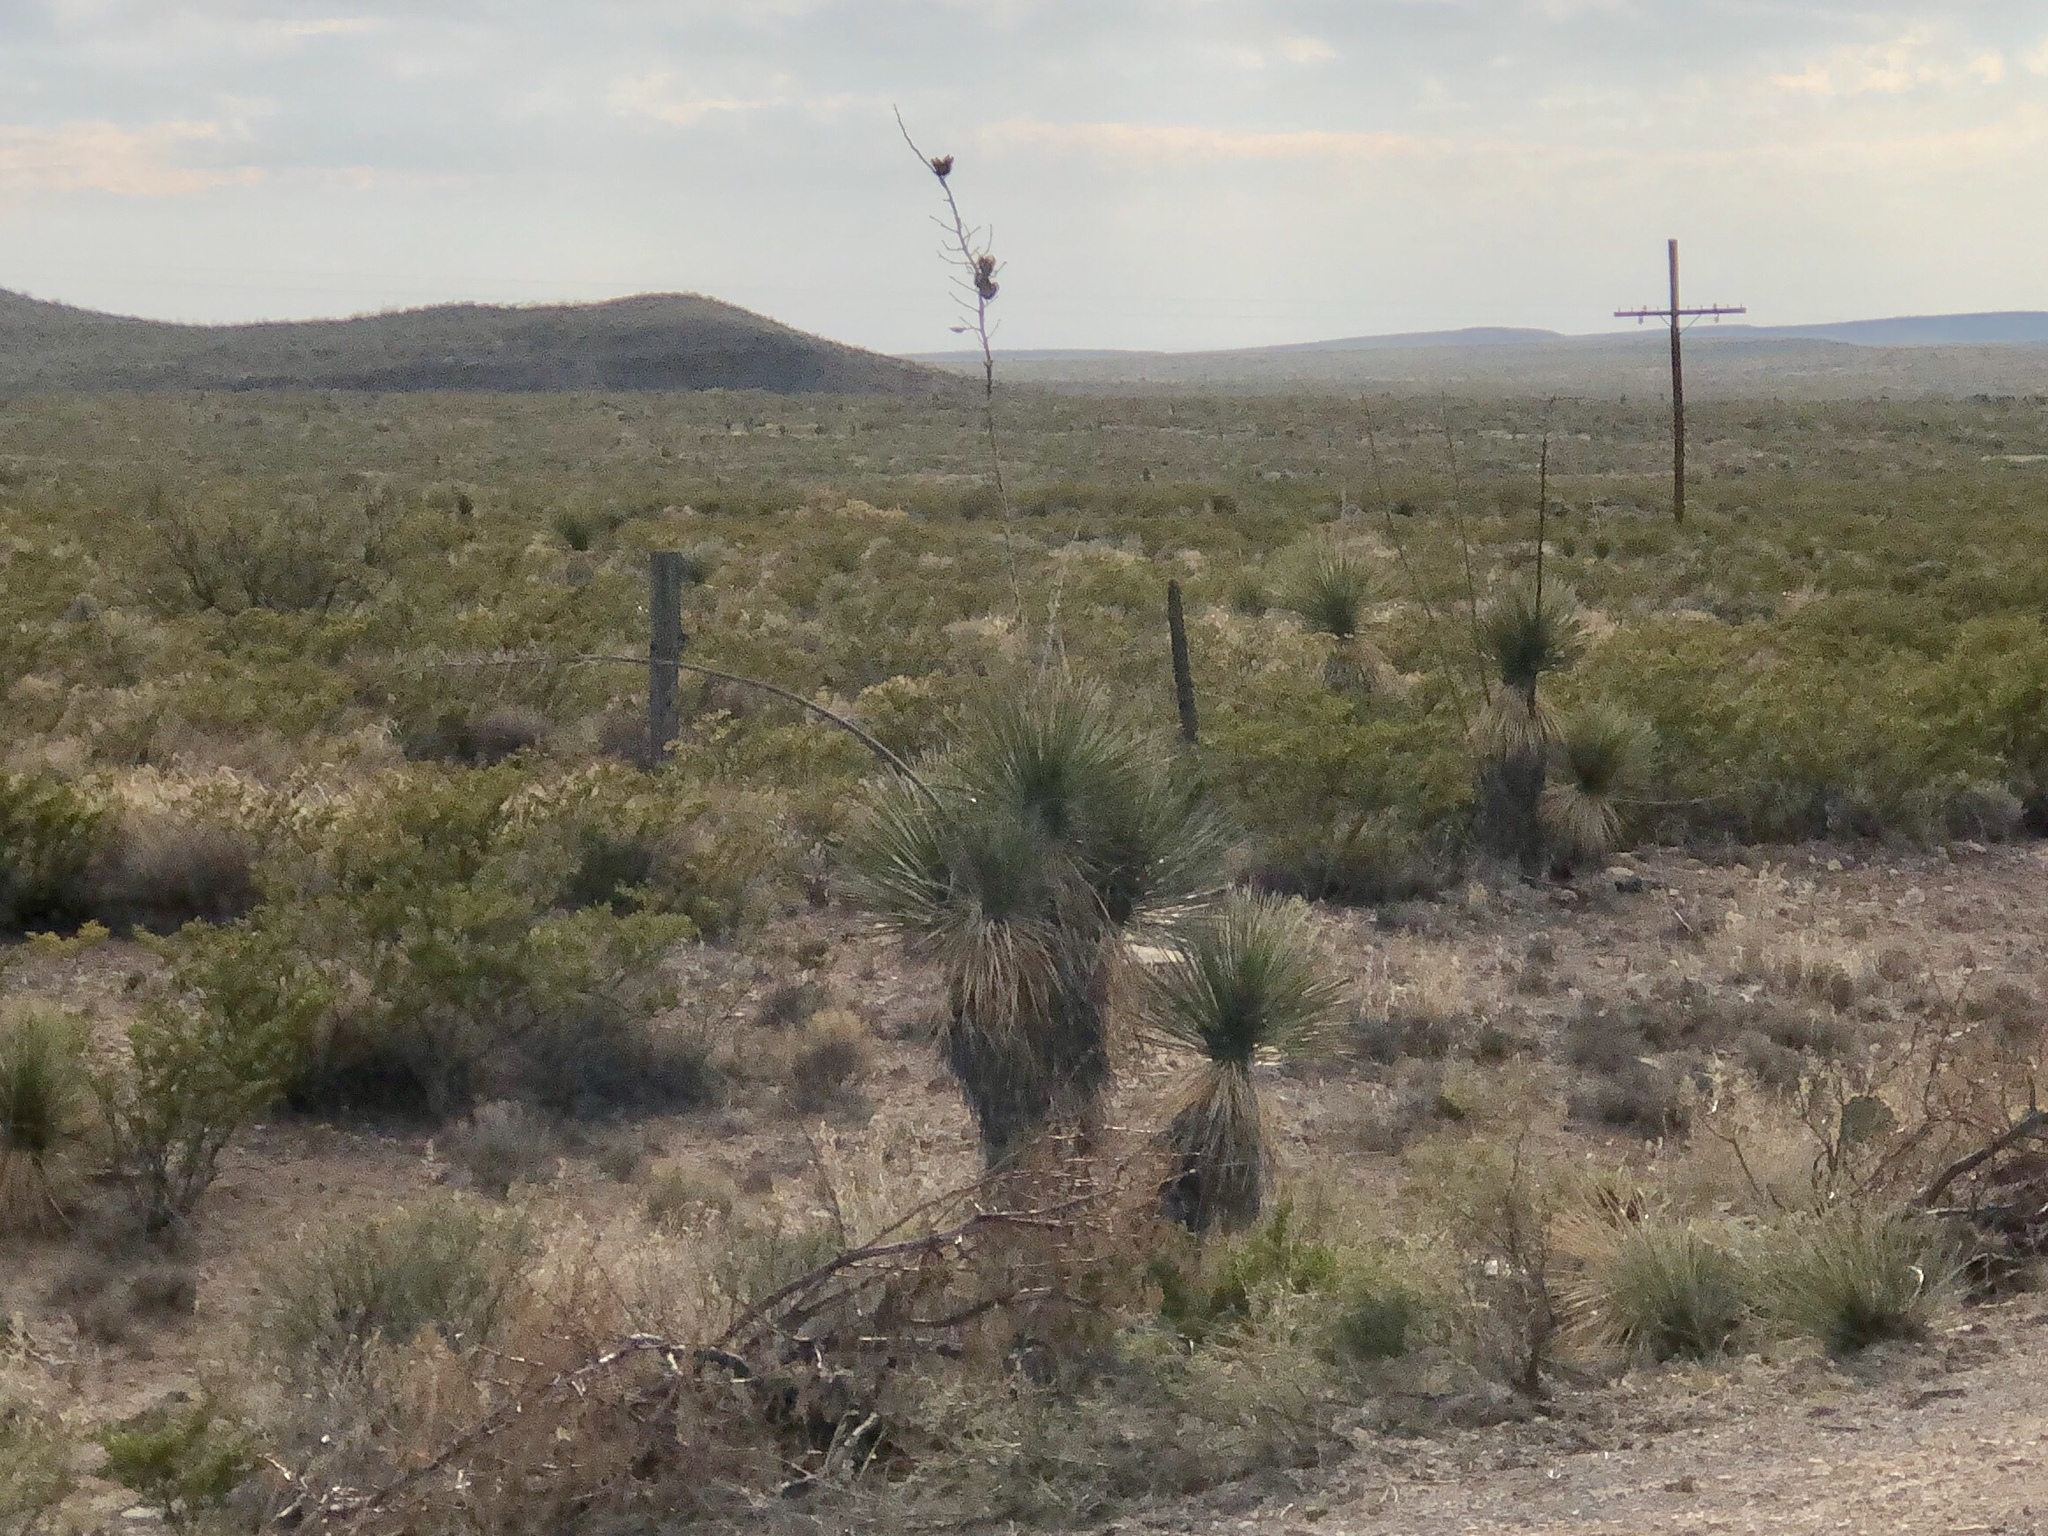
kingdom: Plantae
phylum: Tracheophyta
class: Liliopsida
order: Asparagales
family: Asparagaceae
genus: Yucca
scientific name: Yucca elata
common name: Palmella
